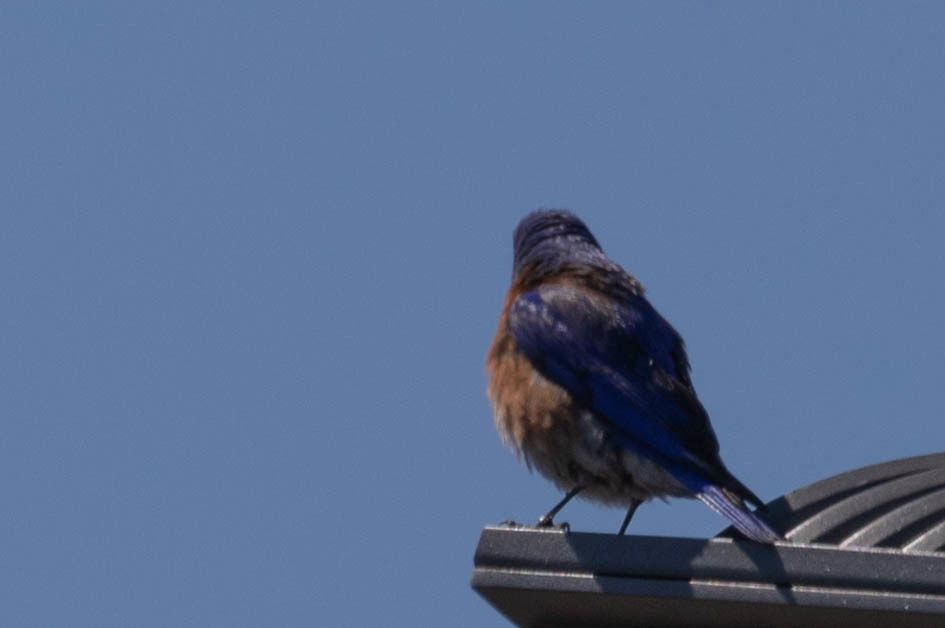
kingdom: Animalia
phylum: Chordata
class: Aves
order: Passeriformes
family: Turdidae
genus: Sialia
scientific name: Sialia mexicana
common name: Western bluebird
